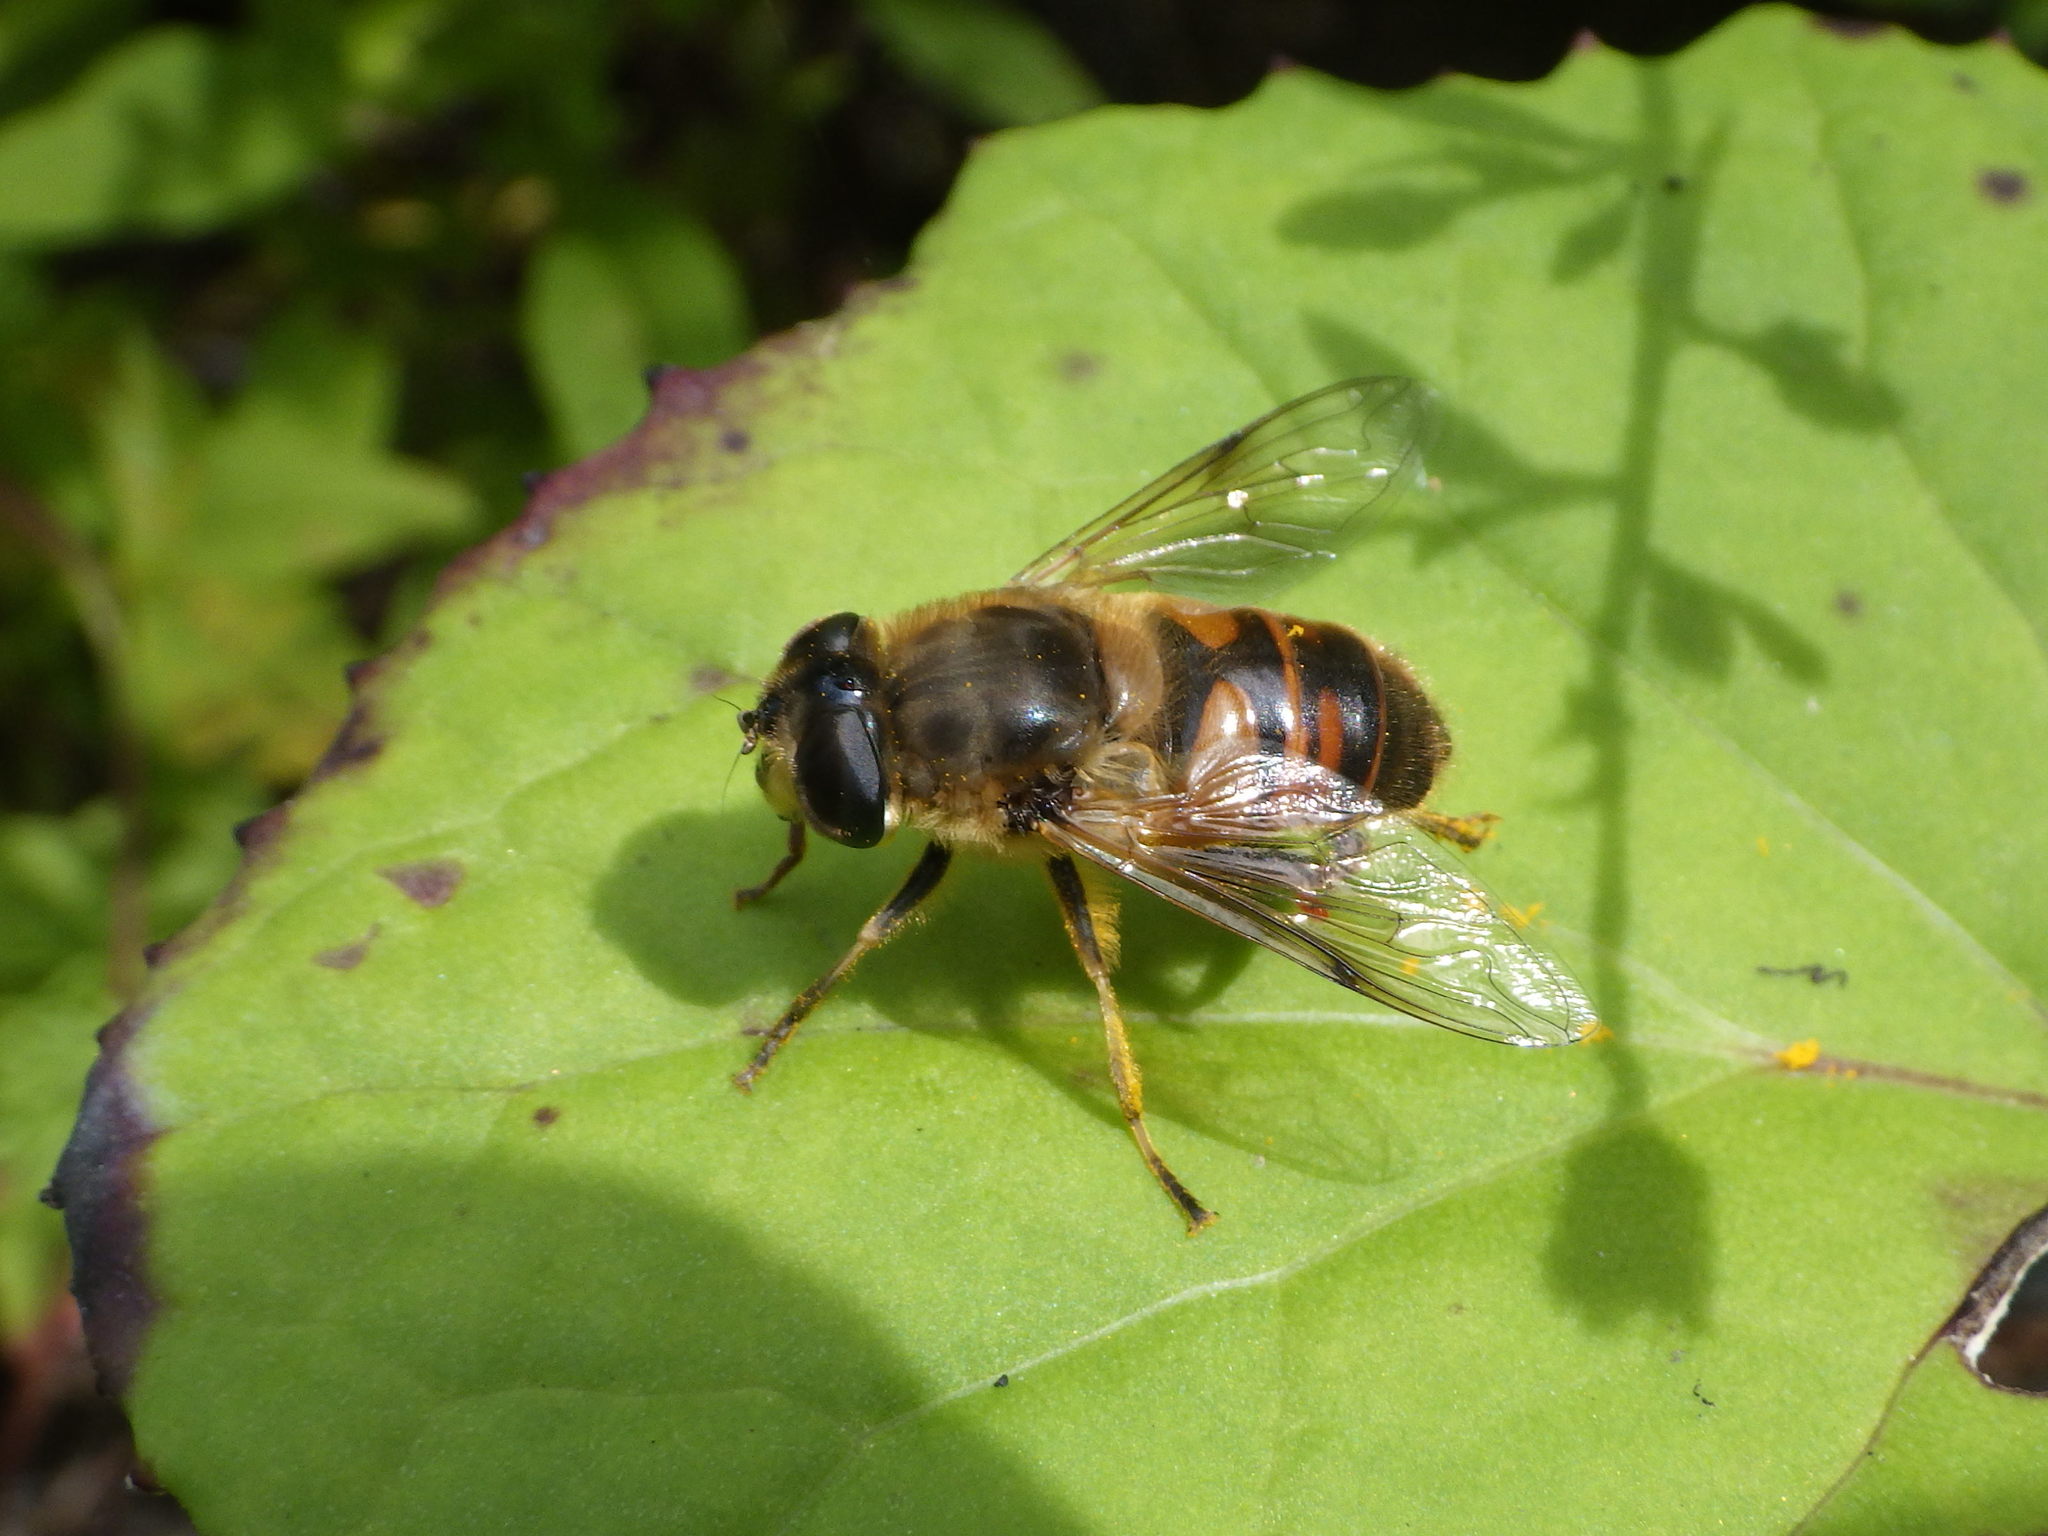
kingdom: Animalia
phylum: Arthropoda
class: Insecta
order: Diptera
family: Syrphidae
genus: Eristalis
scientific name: Eristalis tenax
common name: Drone fly
